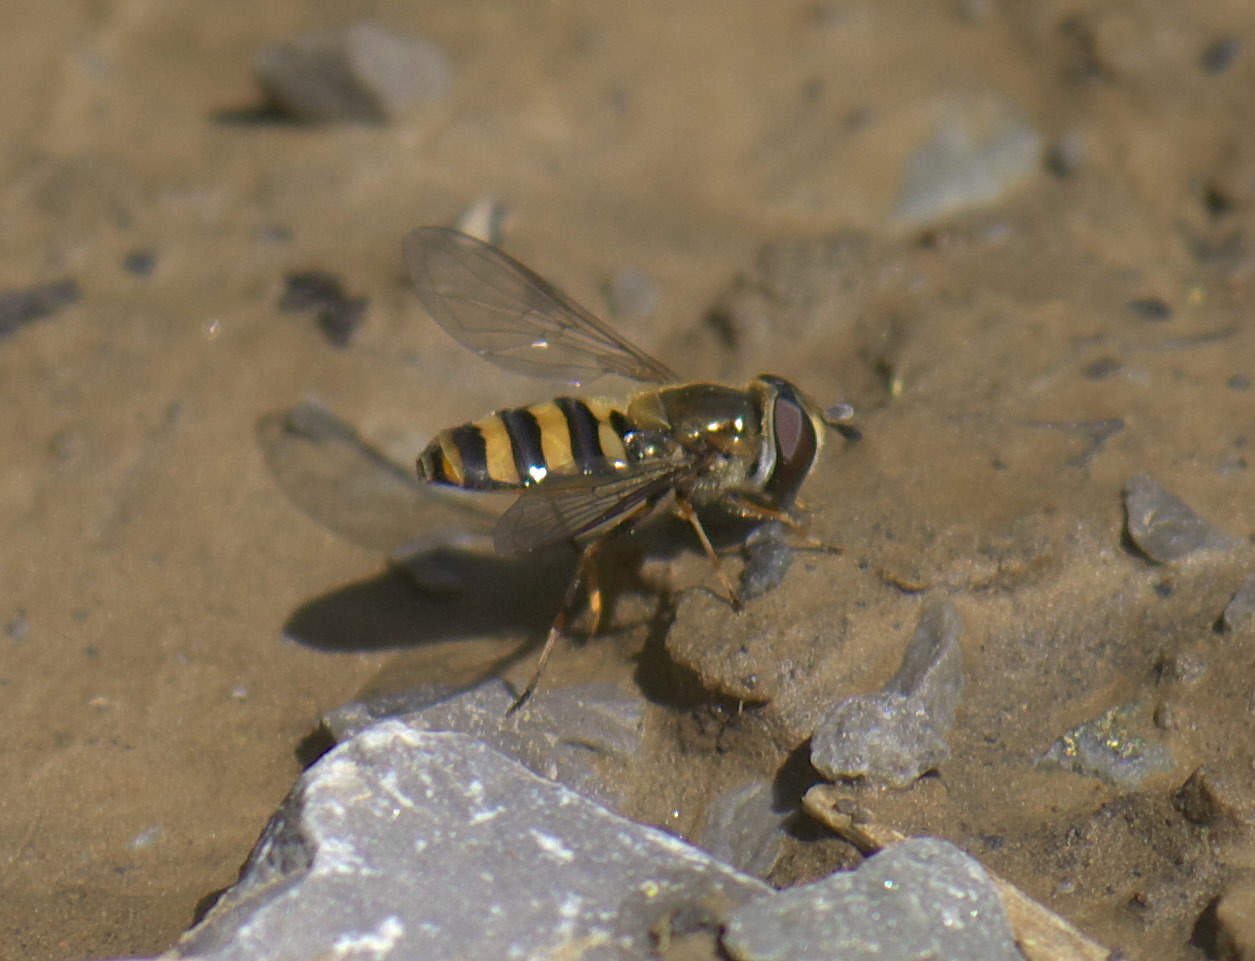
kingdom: Animalia
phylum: Arthropoda
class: Insecta
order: Diptera
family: Syrphidae
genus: Eupeodes
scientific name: Eupeodes
